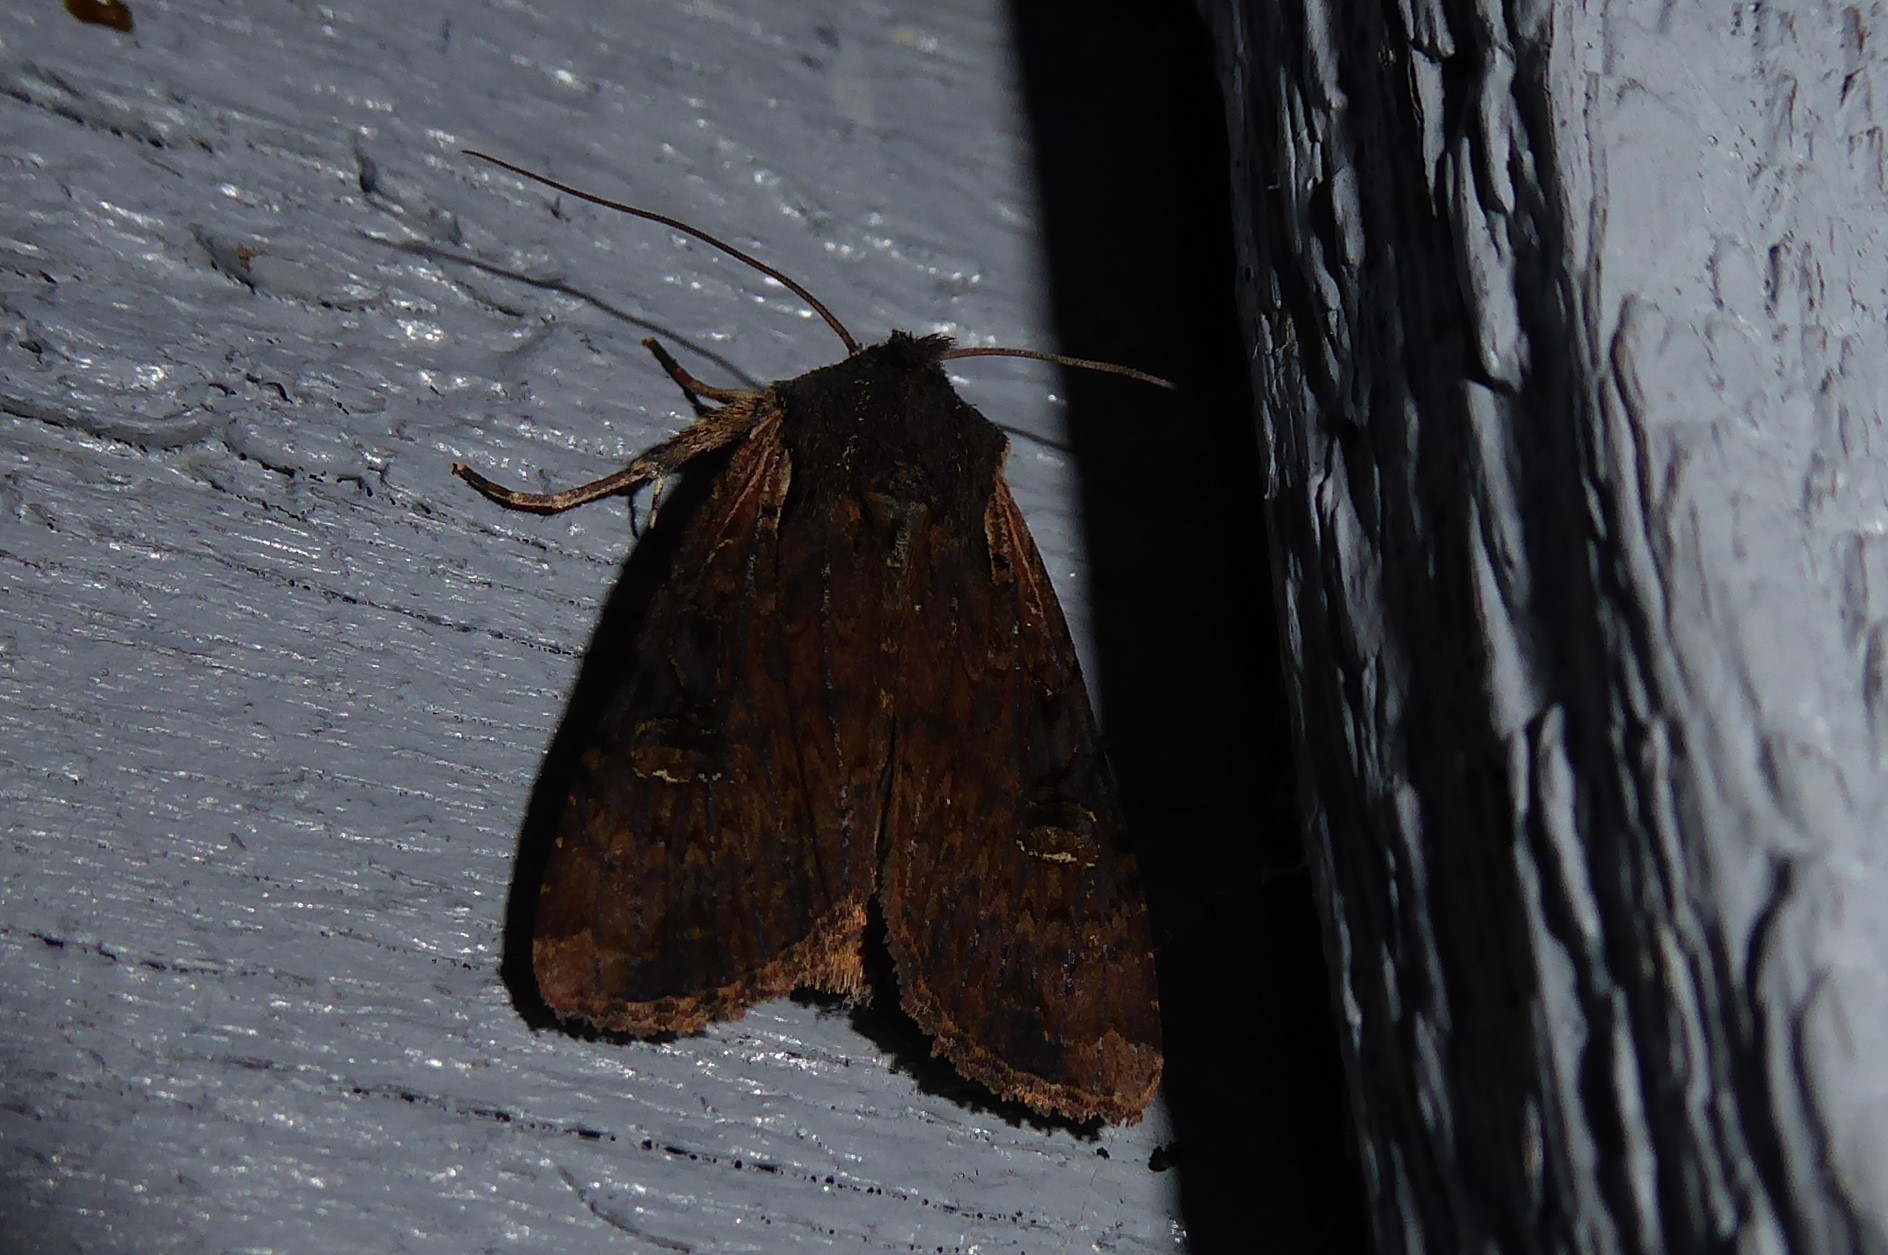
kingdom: Animalia
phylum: Arthropoda
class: Insecta
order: Lepidoptera
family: Noctuidae
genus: Ichneutica
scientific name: Ichneutica omoplaca
